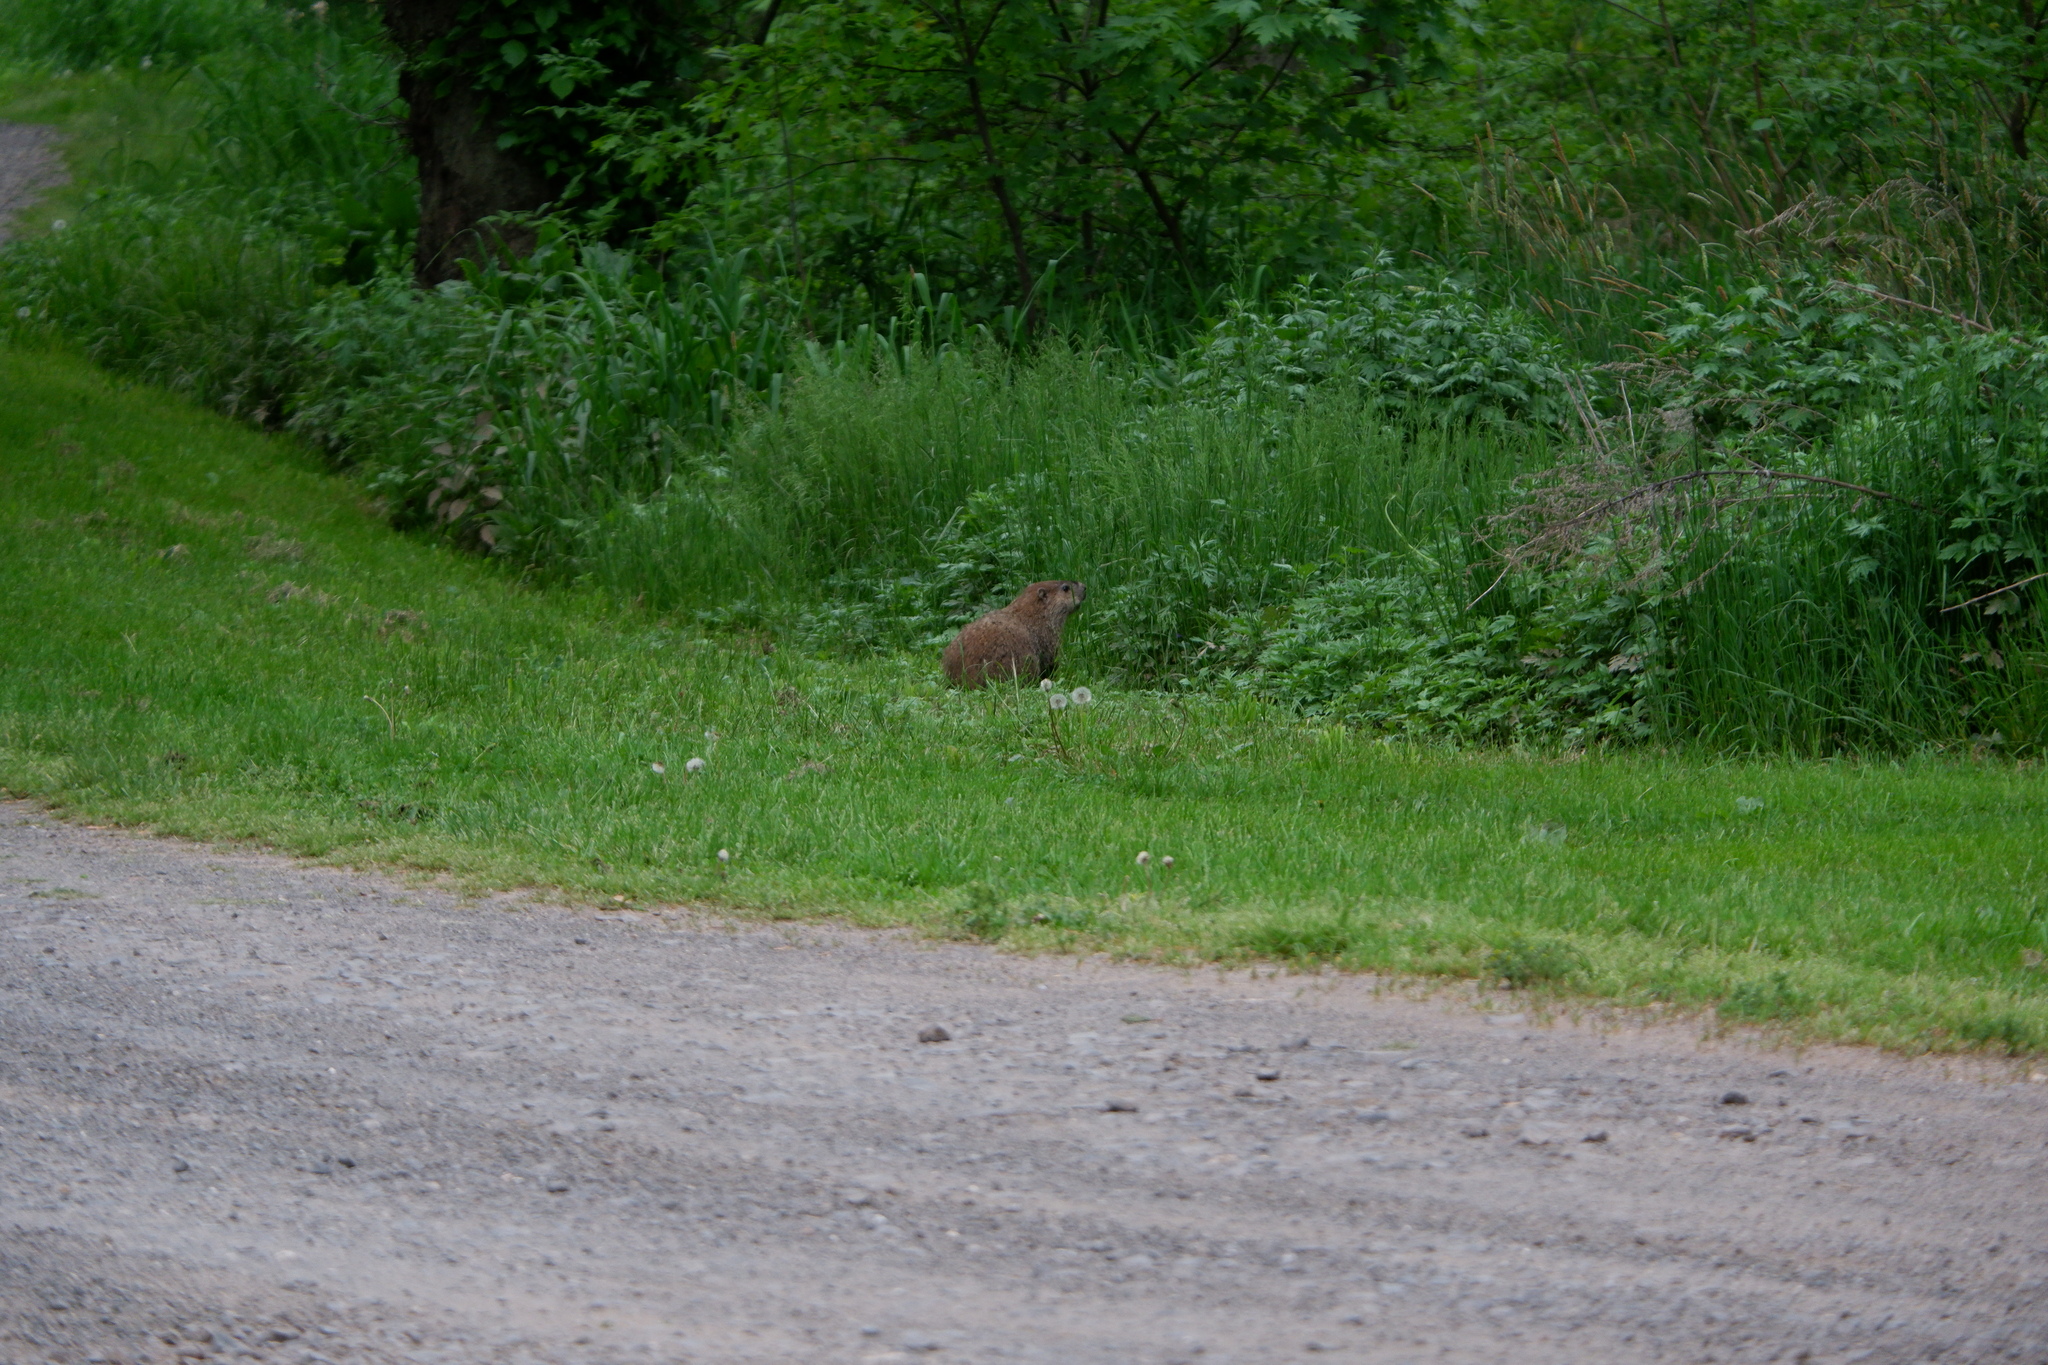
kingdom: Animalia
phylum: Chordata
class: Mammalia
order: Rodentia
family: Sciuridae
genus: Marmota
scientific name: Marmota monax
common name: Groundhog
